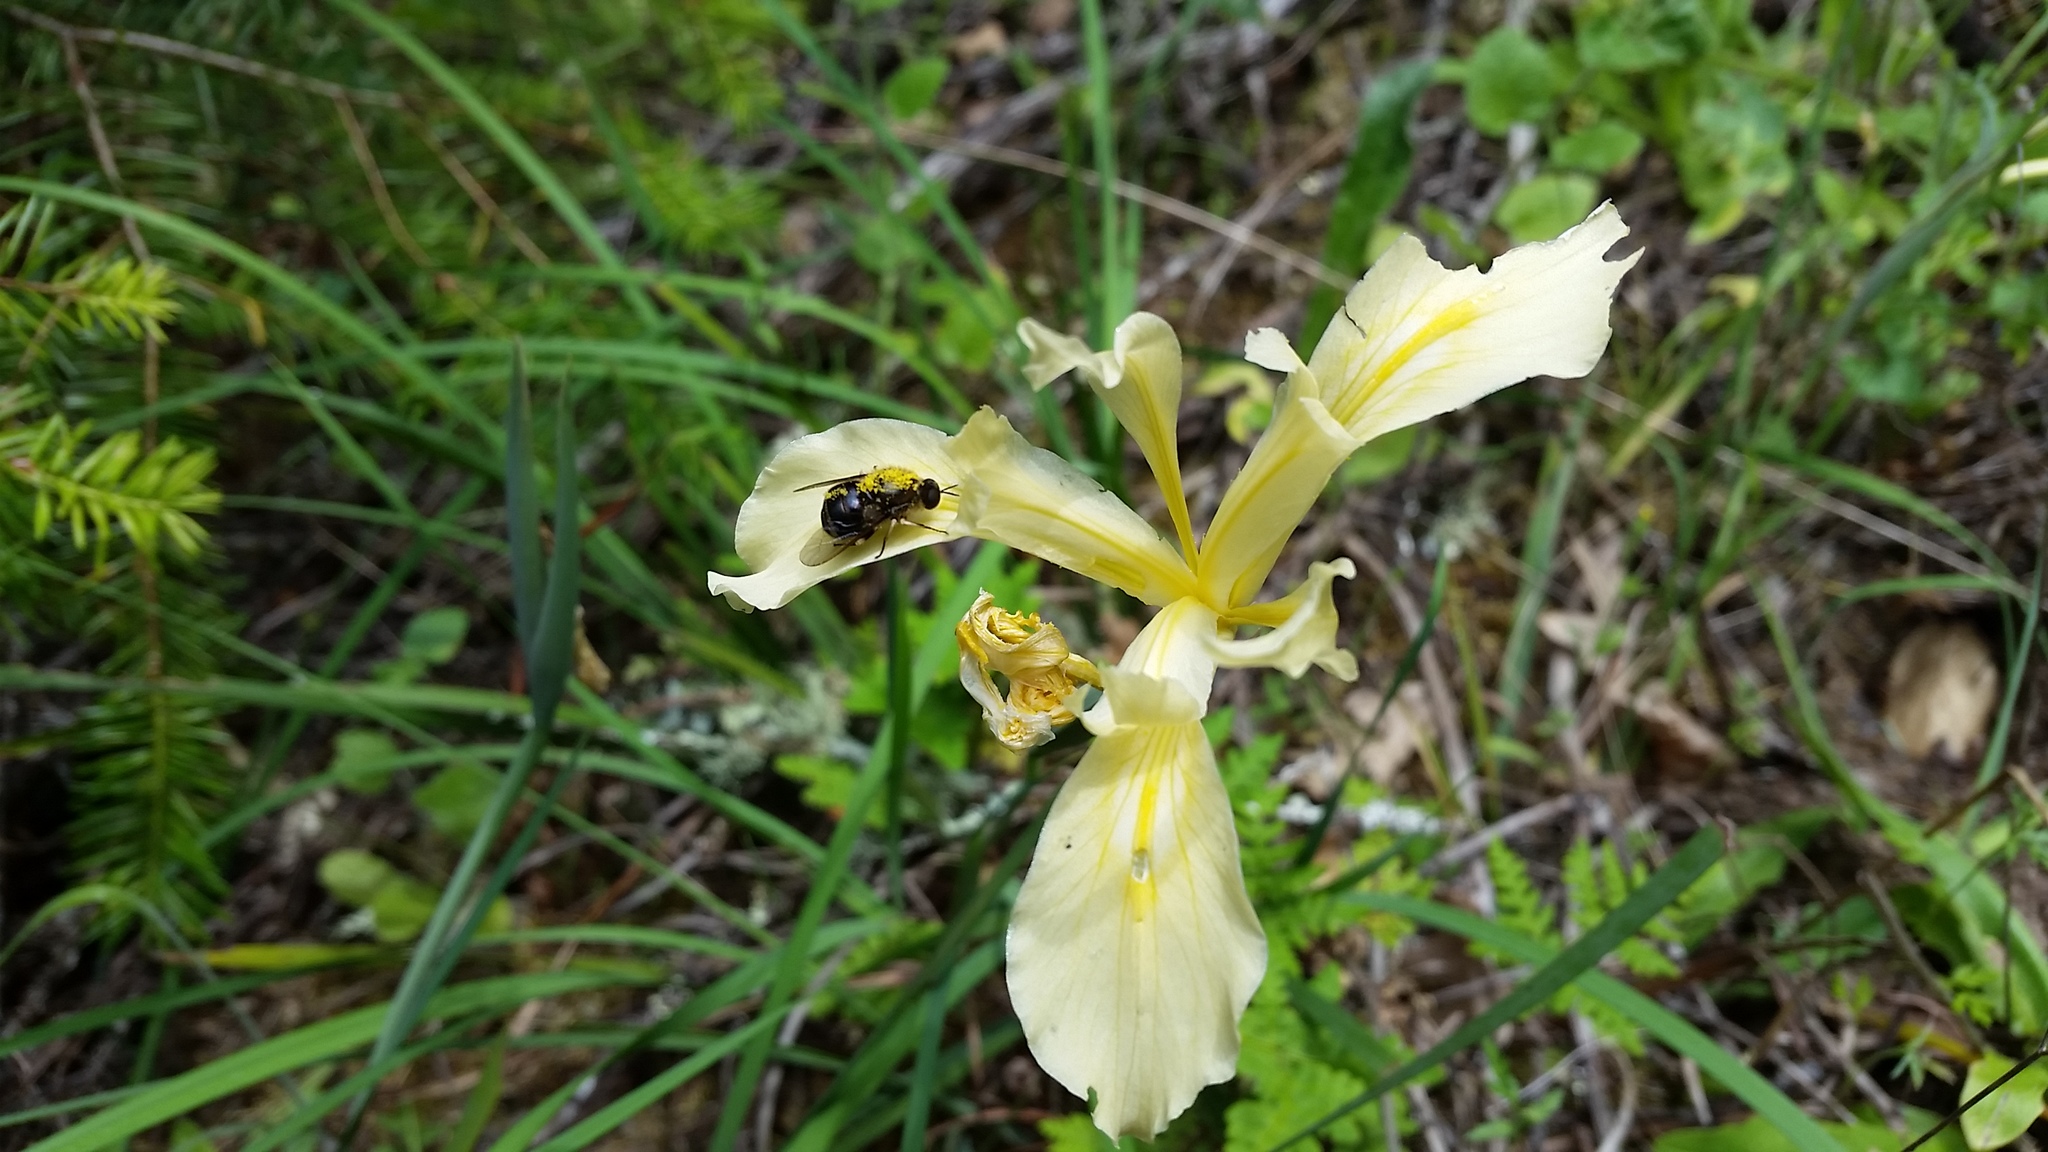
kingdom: Plantae
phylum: Tracheophyta
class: Liliopsida
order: Asparagales
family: Iridaceae
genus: Iris
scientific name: Iris fernaldii
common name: Fernald's iris
